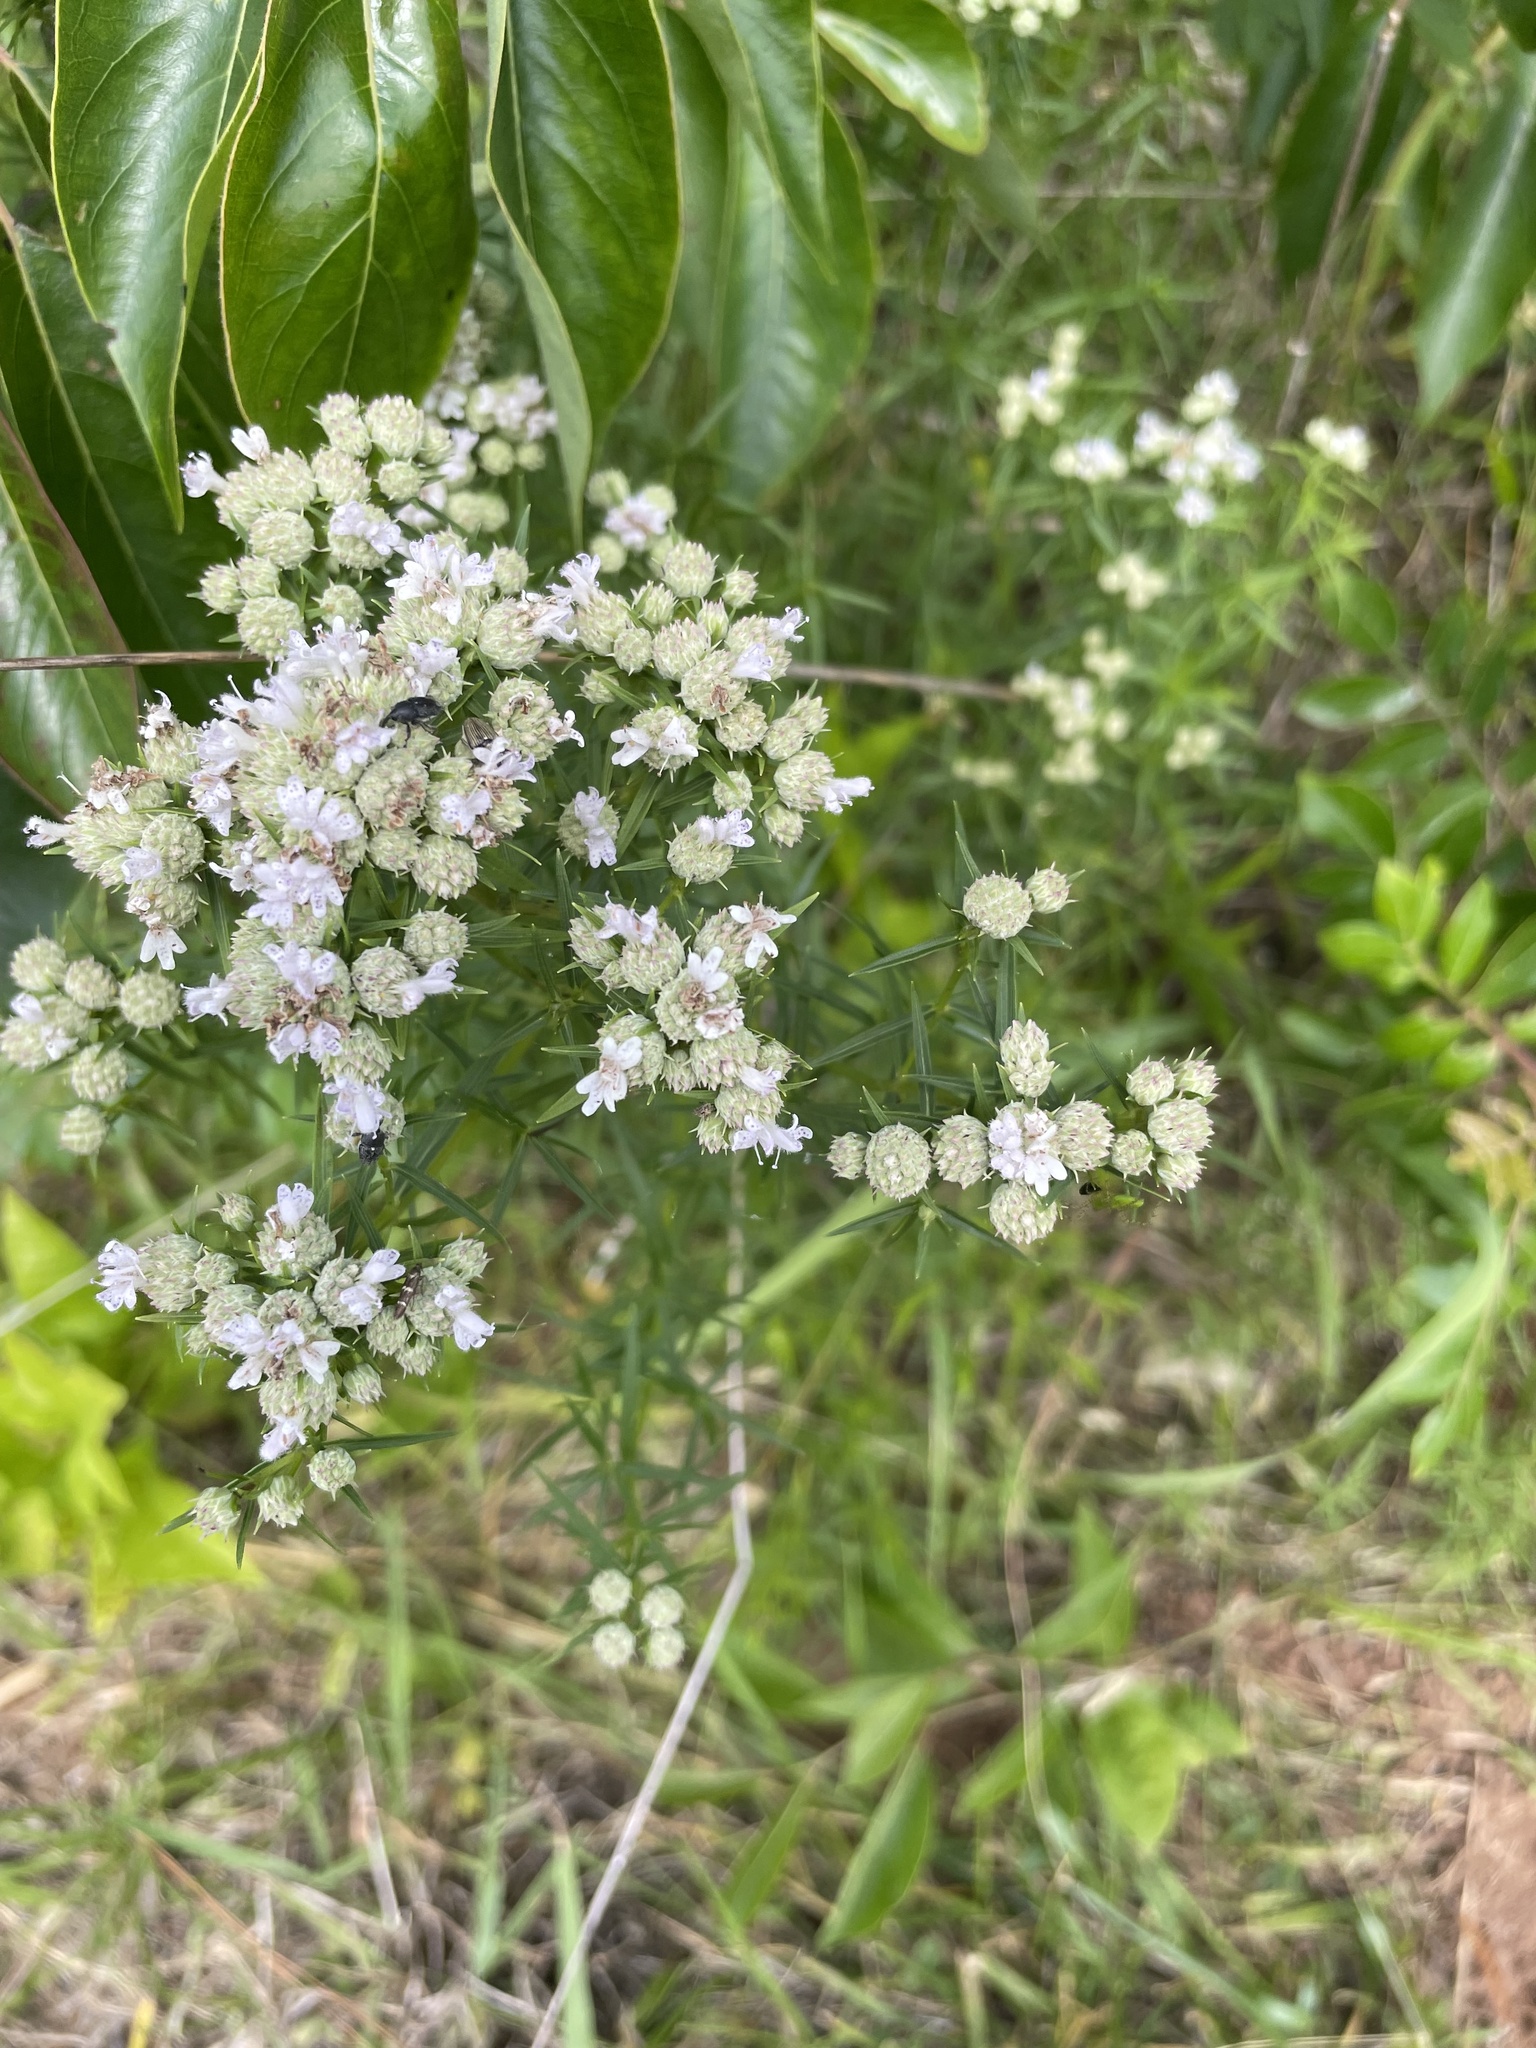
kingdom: Plantae
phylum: Tracheophyta
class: Magnoliopsida
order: Lamiales
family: Lamiaceae
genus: Pycnanthemum
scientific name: Pycnanthemum tenuifolium
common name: Narrow-leaf mountain-mint
